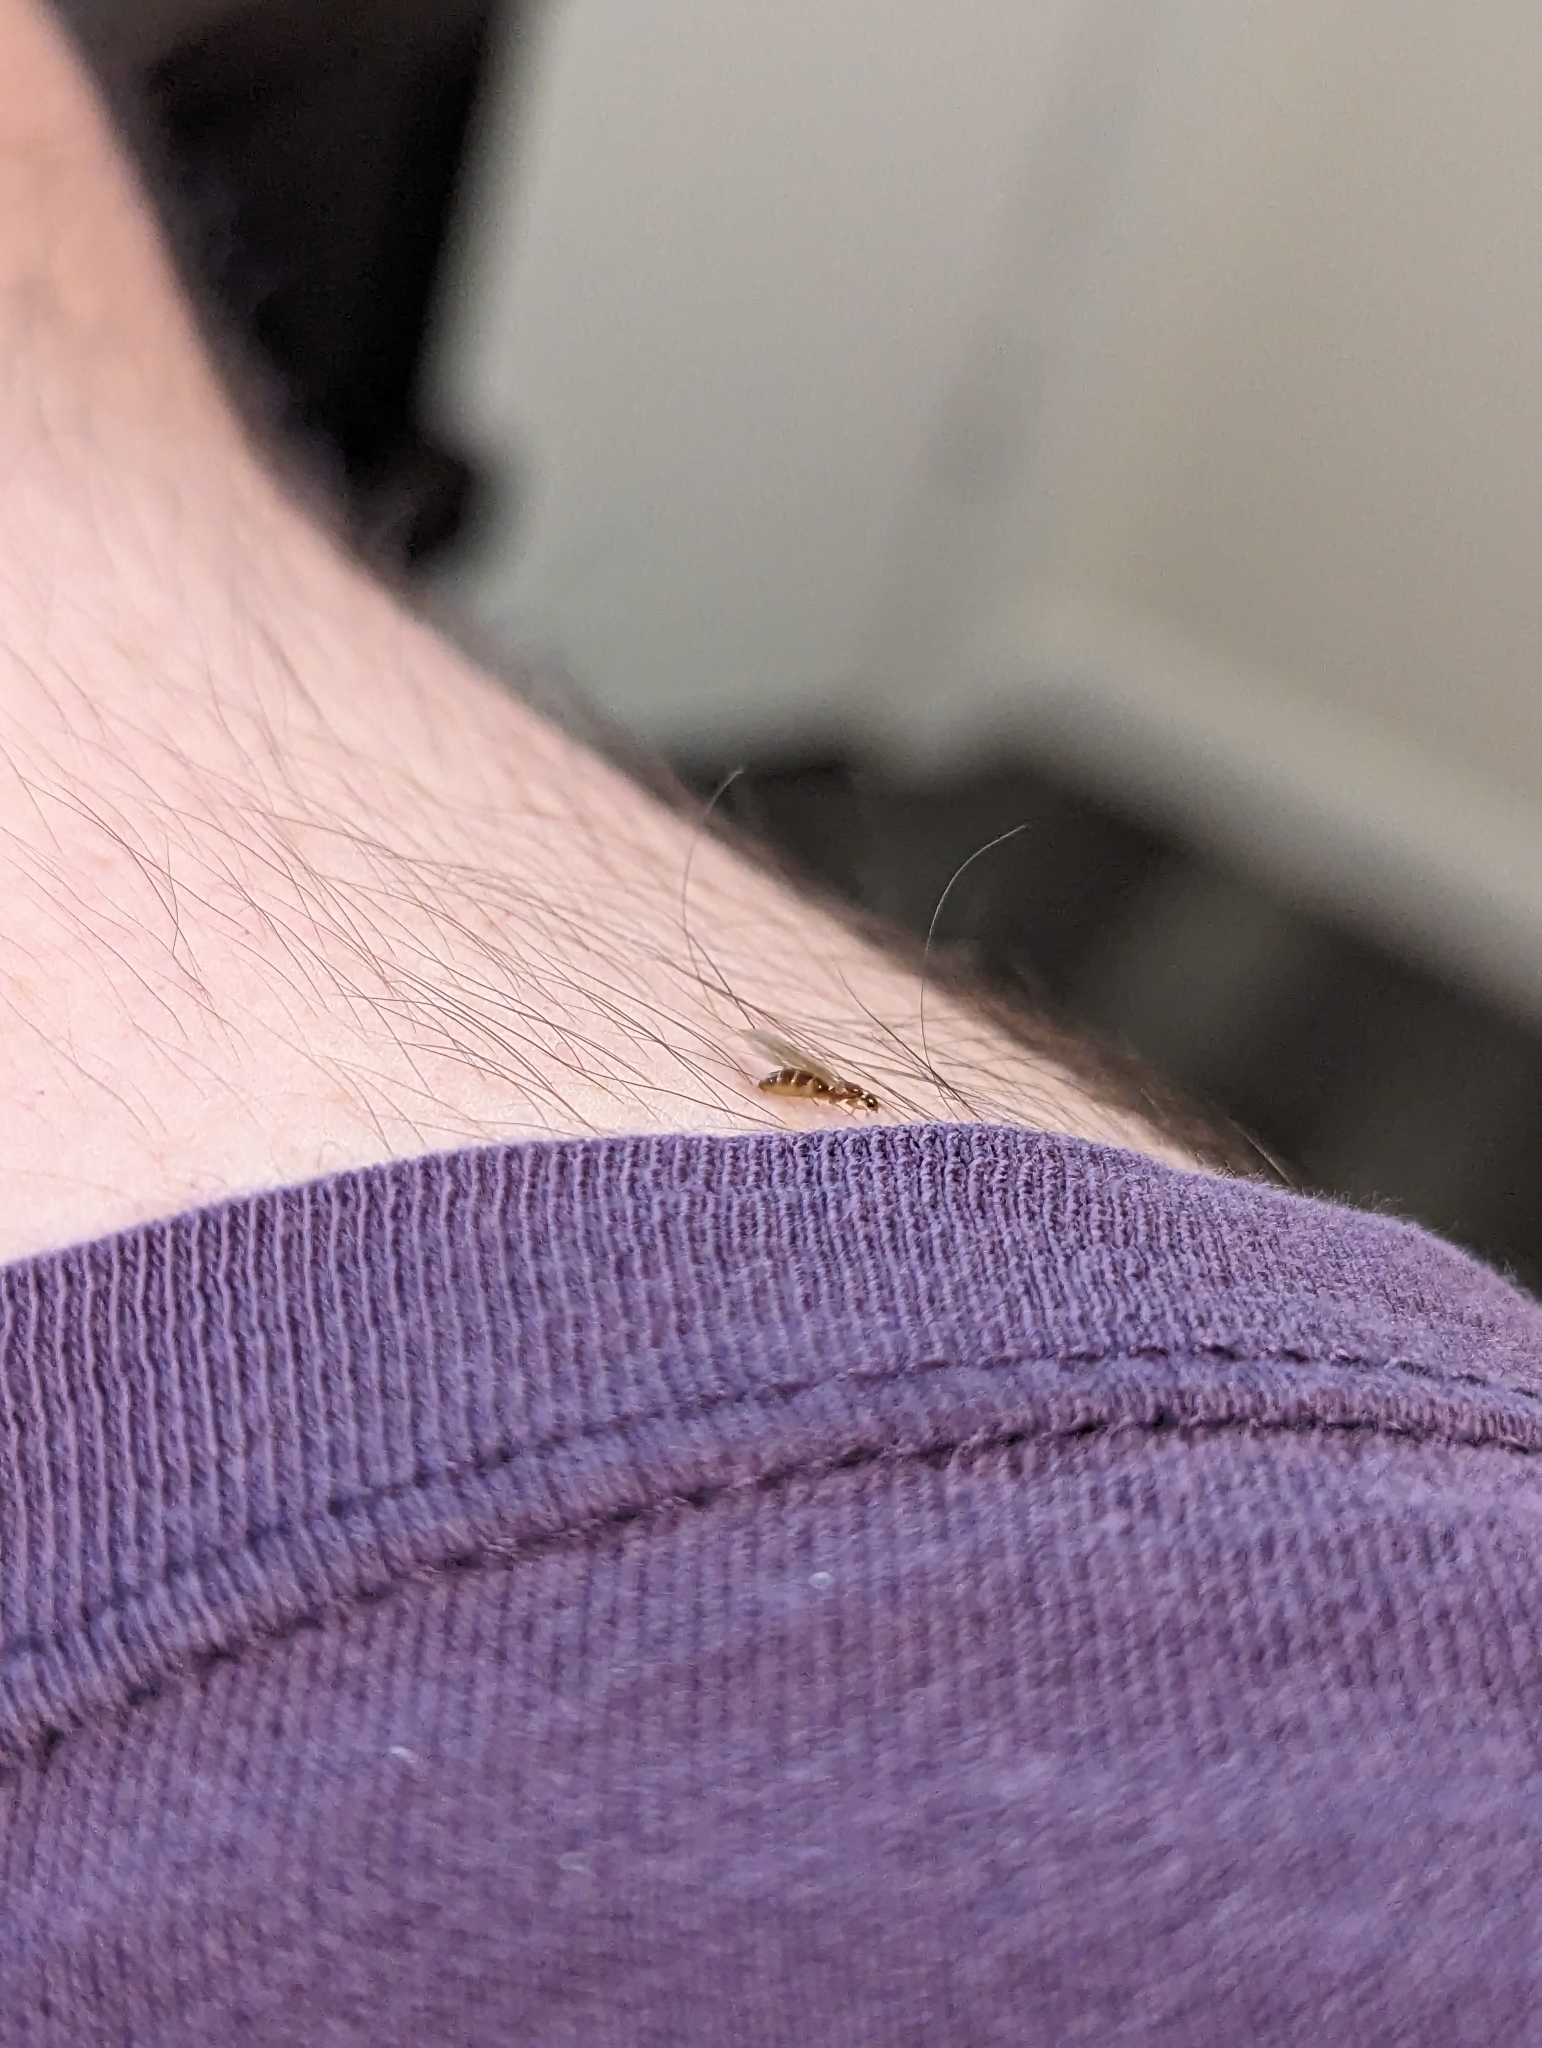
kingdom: Animalia
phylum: Arthropoda
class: Insecta
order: Hymenoptera
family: Formicidae
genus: Brachymyrmex
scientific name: Brachymyrmex depilis
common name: Hairless rover ant
